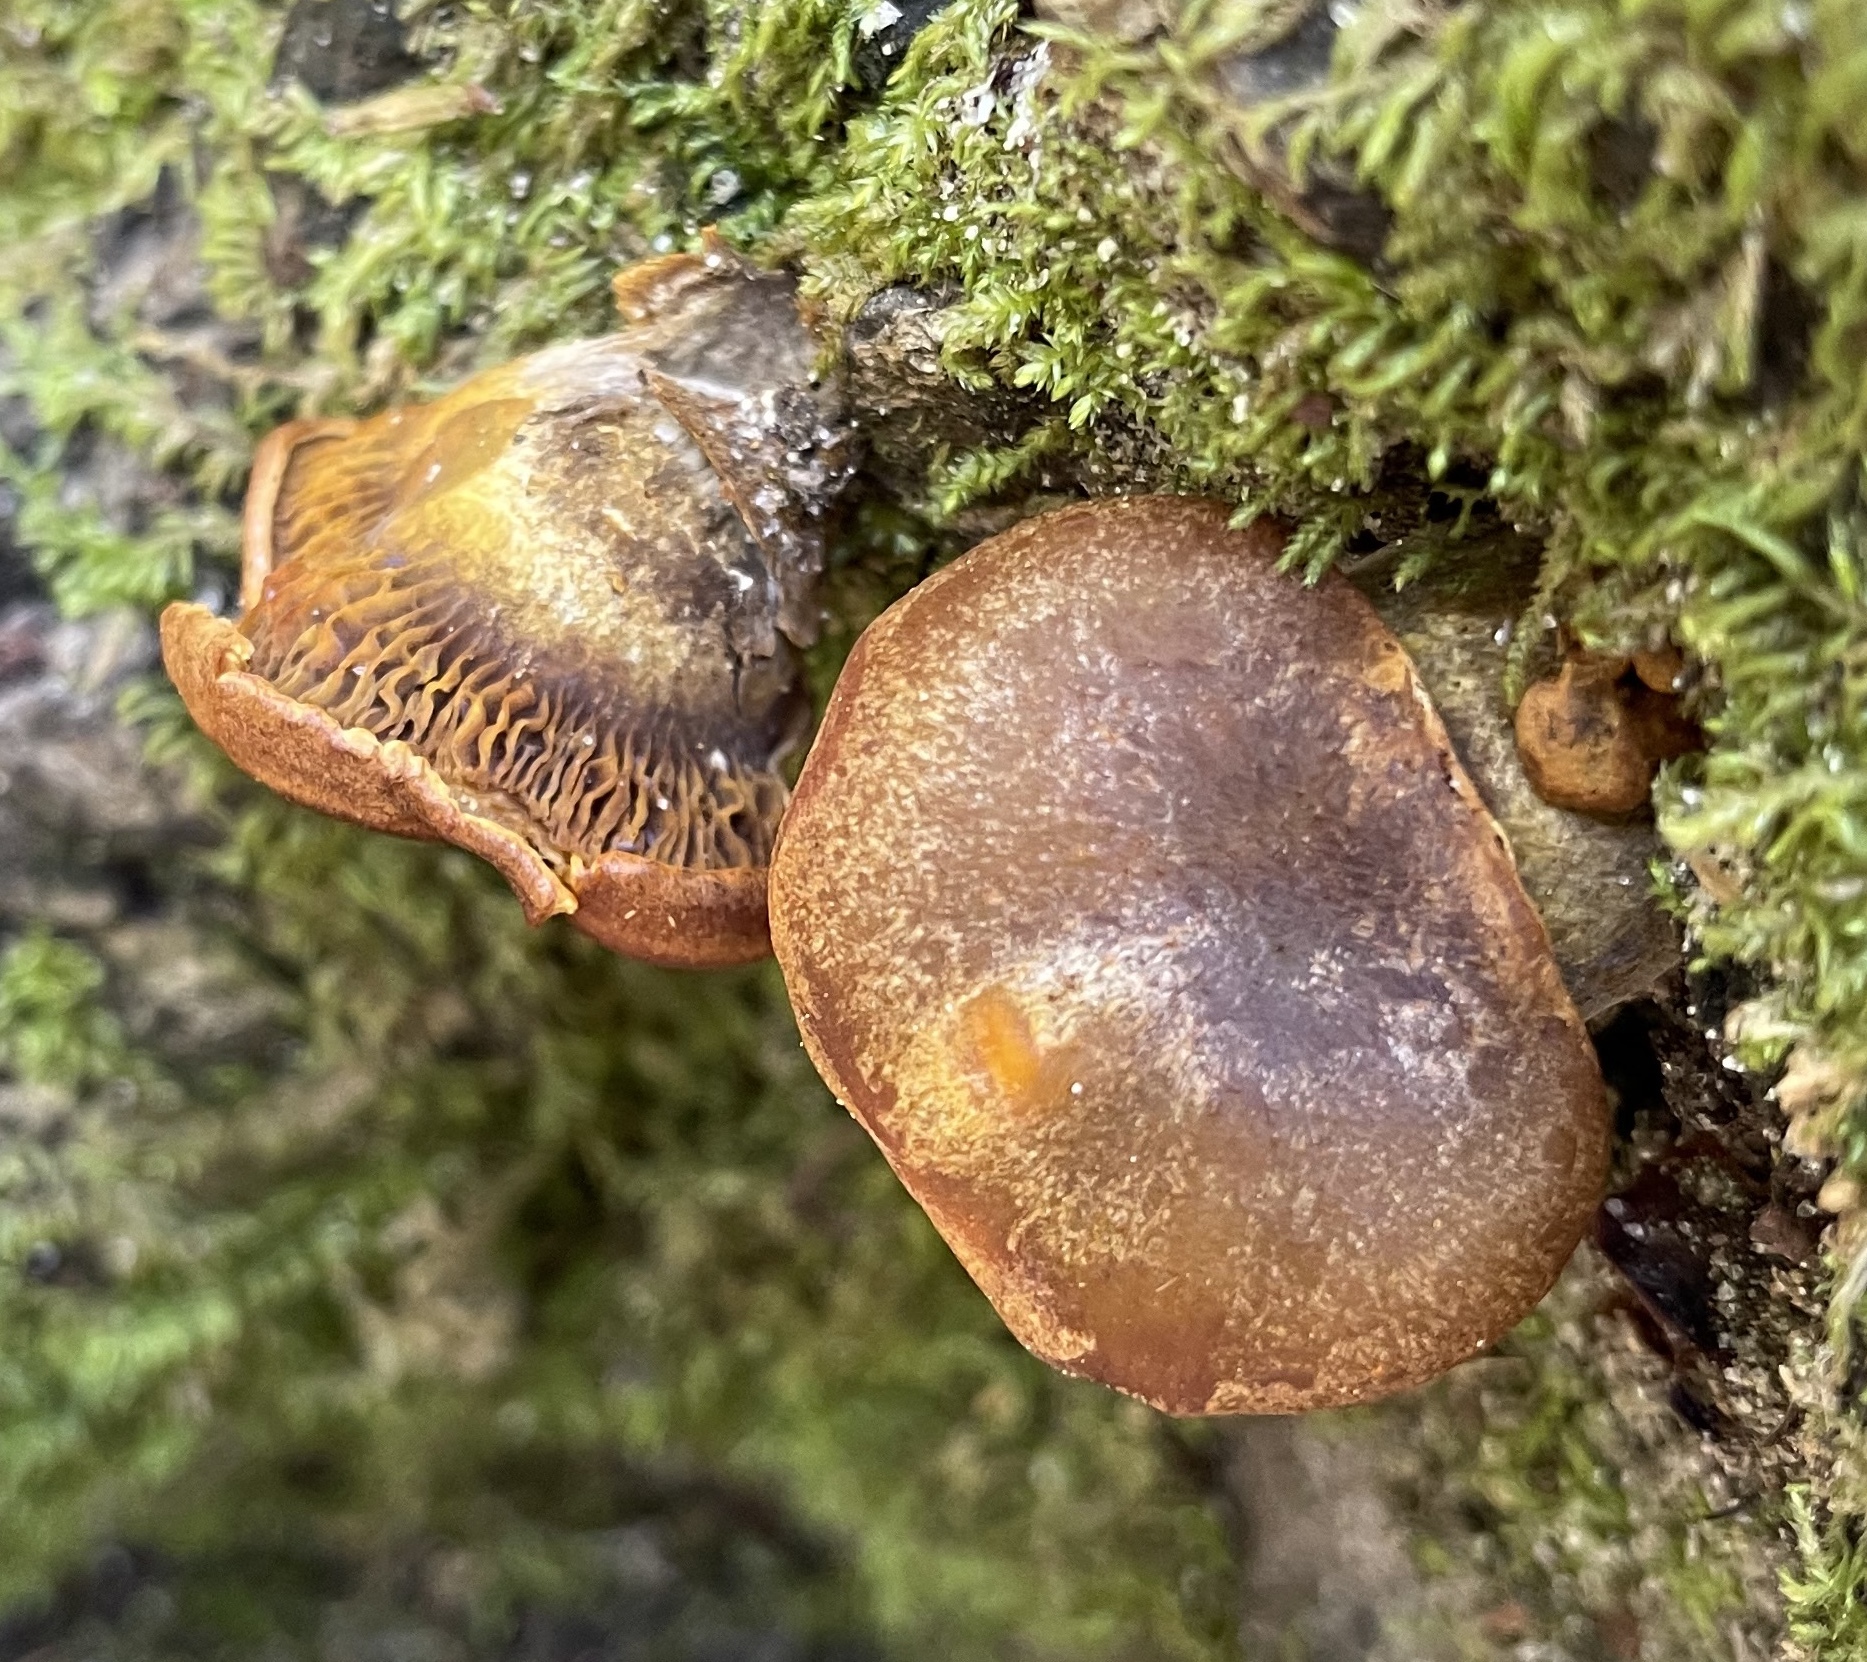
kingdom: Fungi
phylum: Basidiomycota
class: Agaricomycetes
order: Agaricales
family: Omphalotaceae
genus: Omphalotus
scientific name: Omphalotus olivascens
